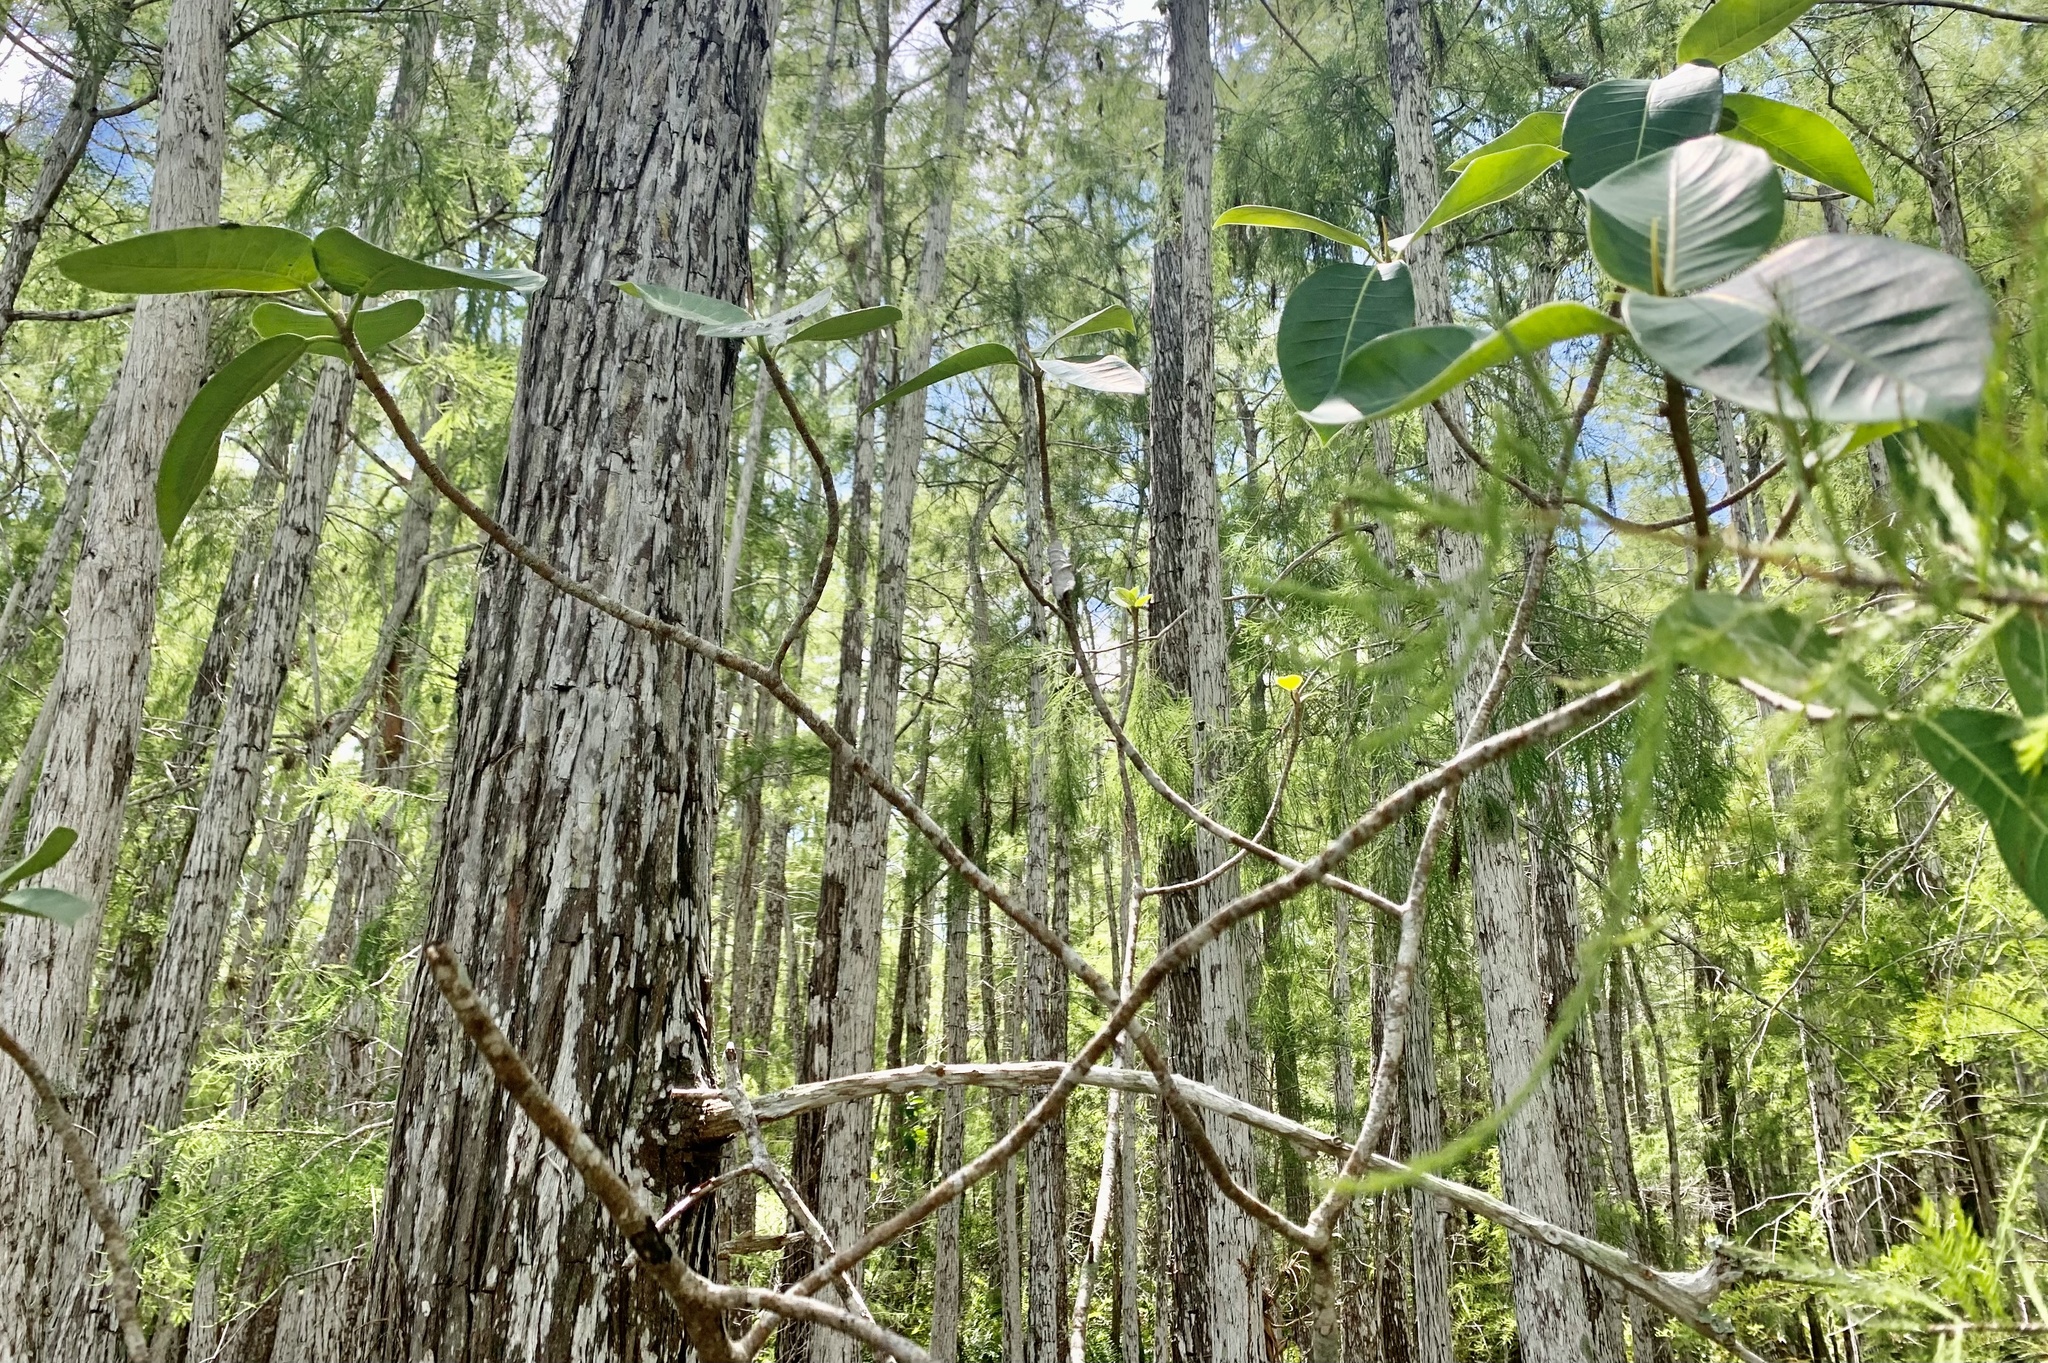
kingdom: Plantae
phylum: Tracheophyta
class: Magnoliopsida
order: Rosales
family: Moraceae
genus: Ficus
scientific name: Ficus aurea
